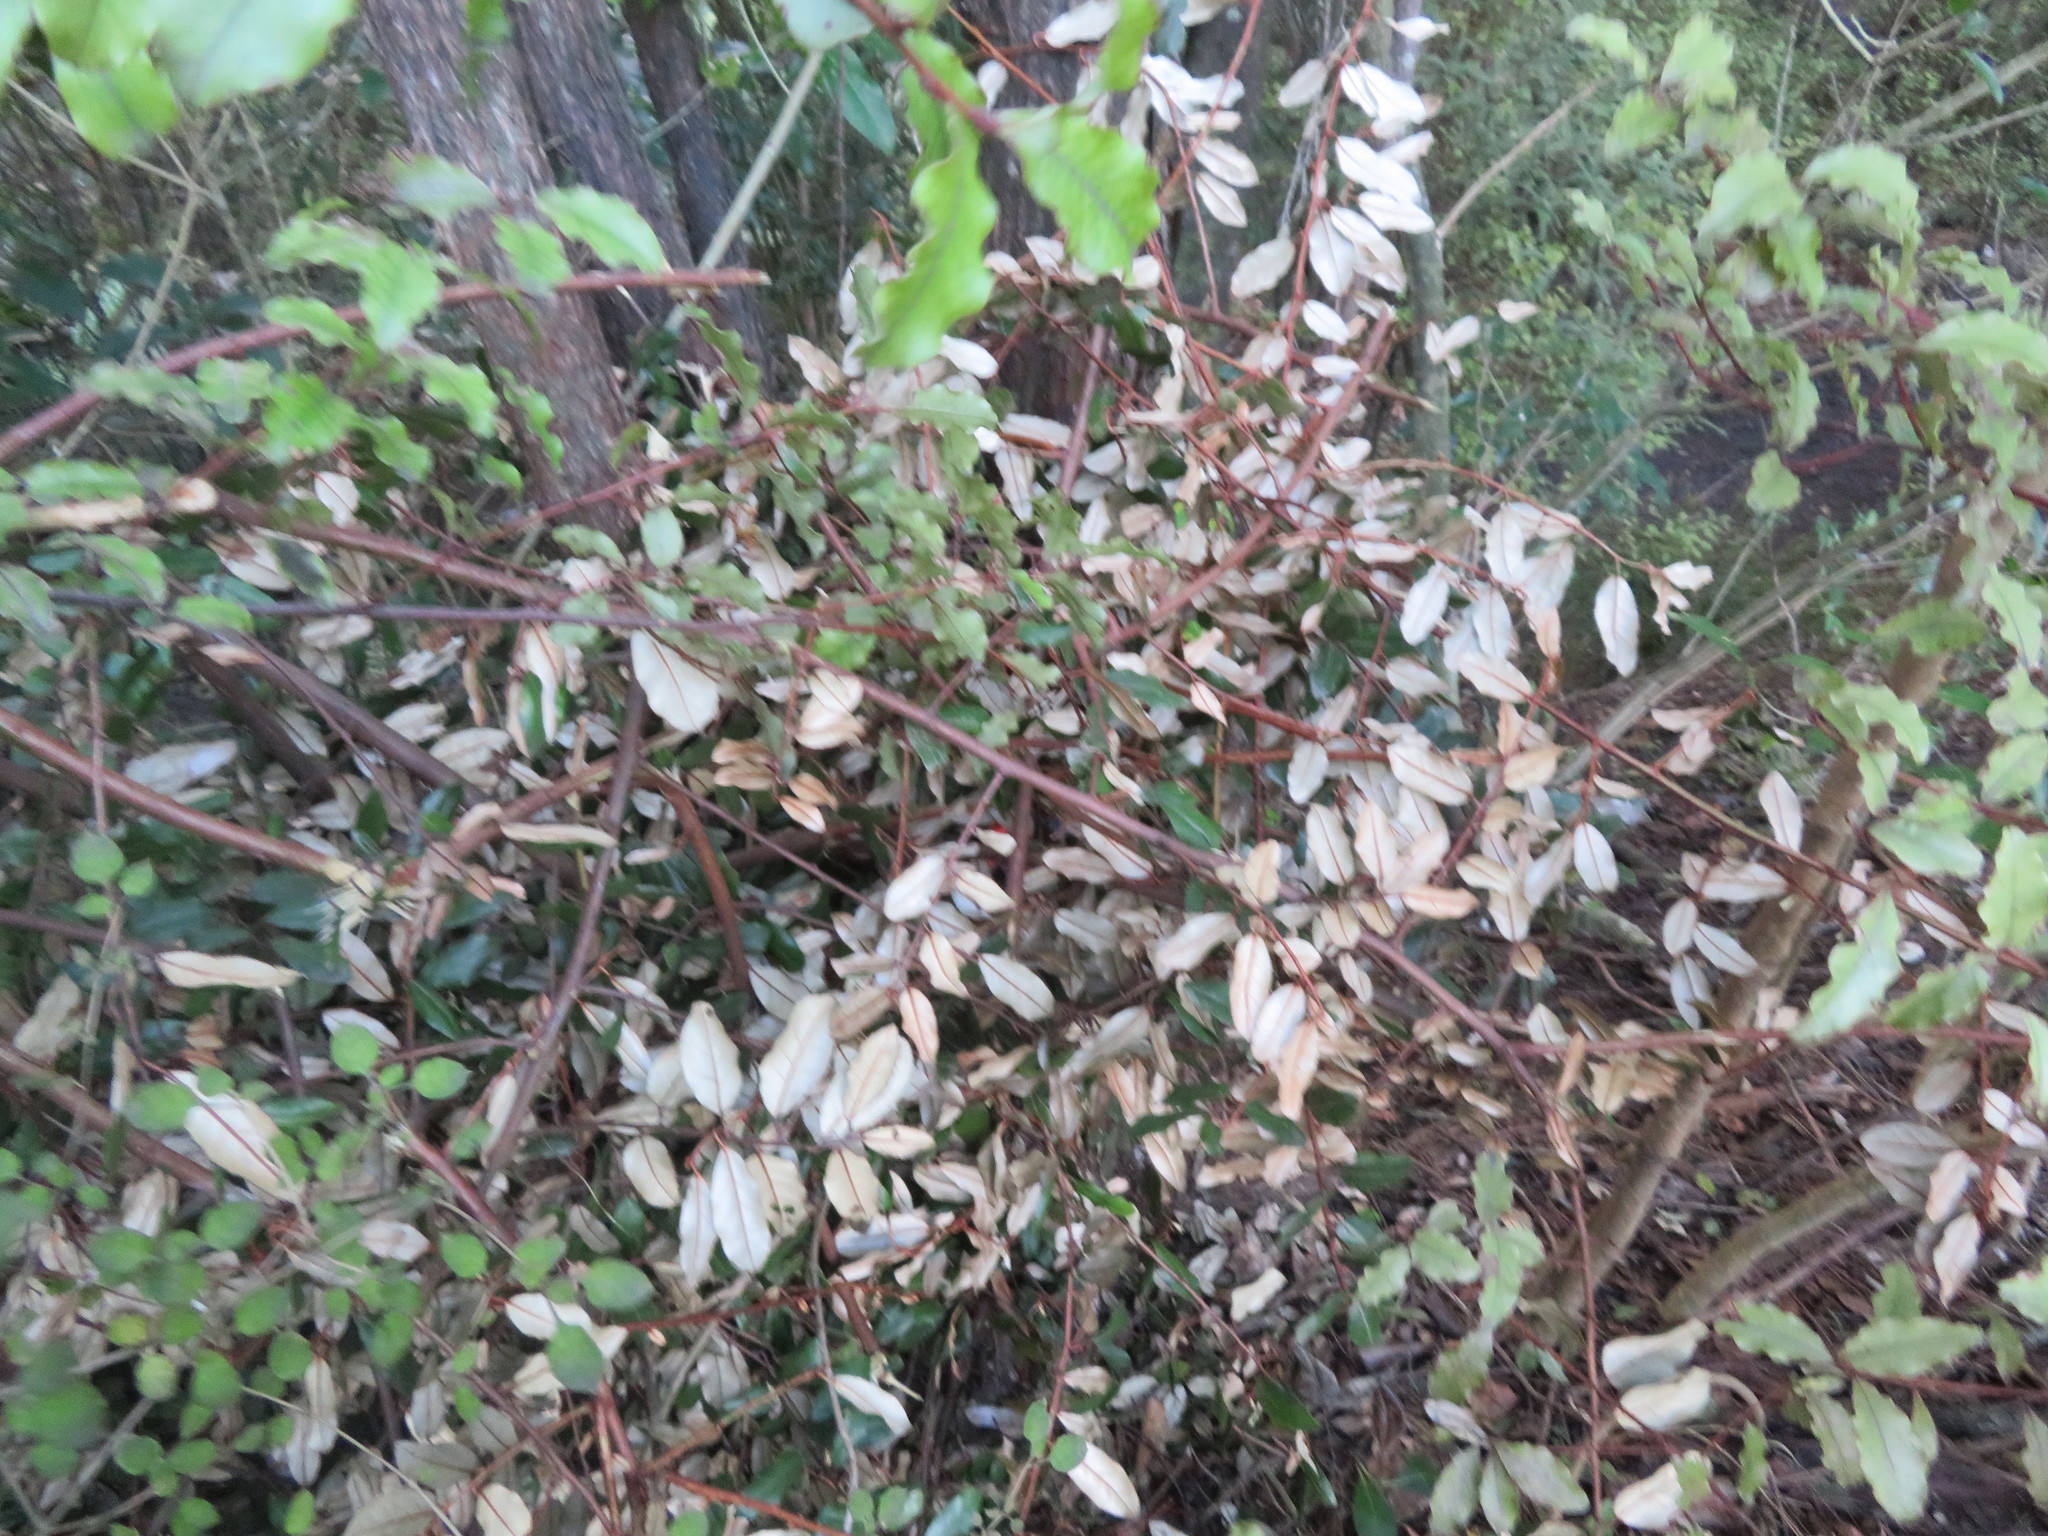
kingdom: Plantae
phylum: Tracheophyta
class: Magnoliopsida
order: Rosales
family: Elaeagnaceae
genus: Elaeagnus
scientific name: Elaeagnus reflexa
